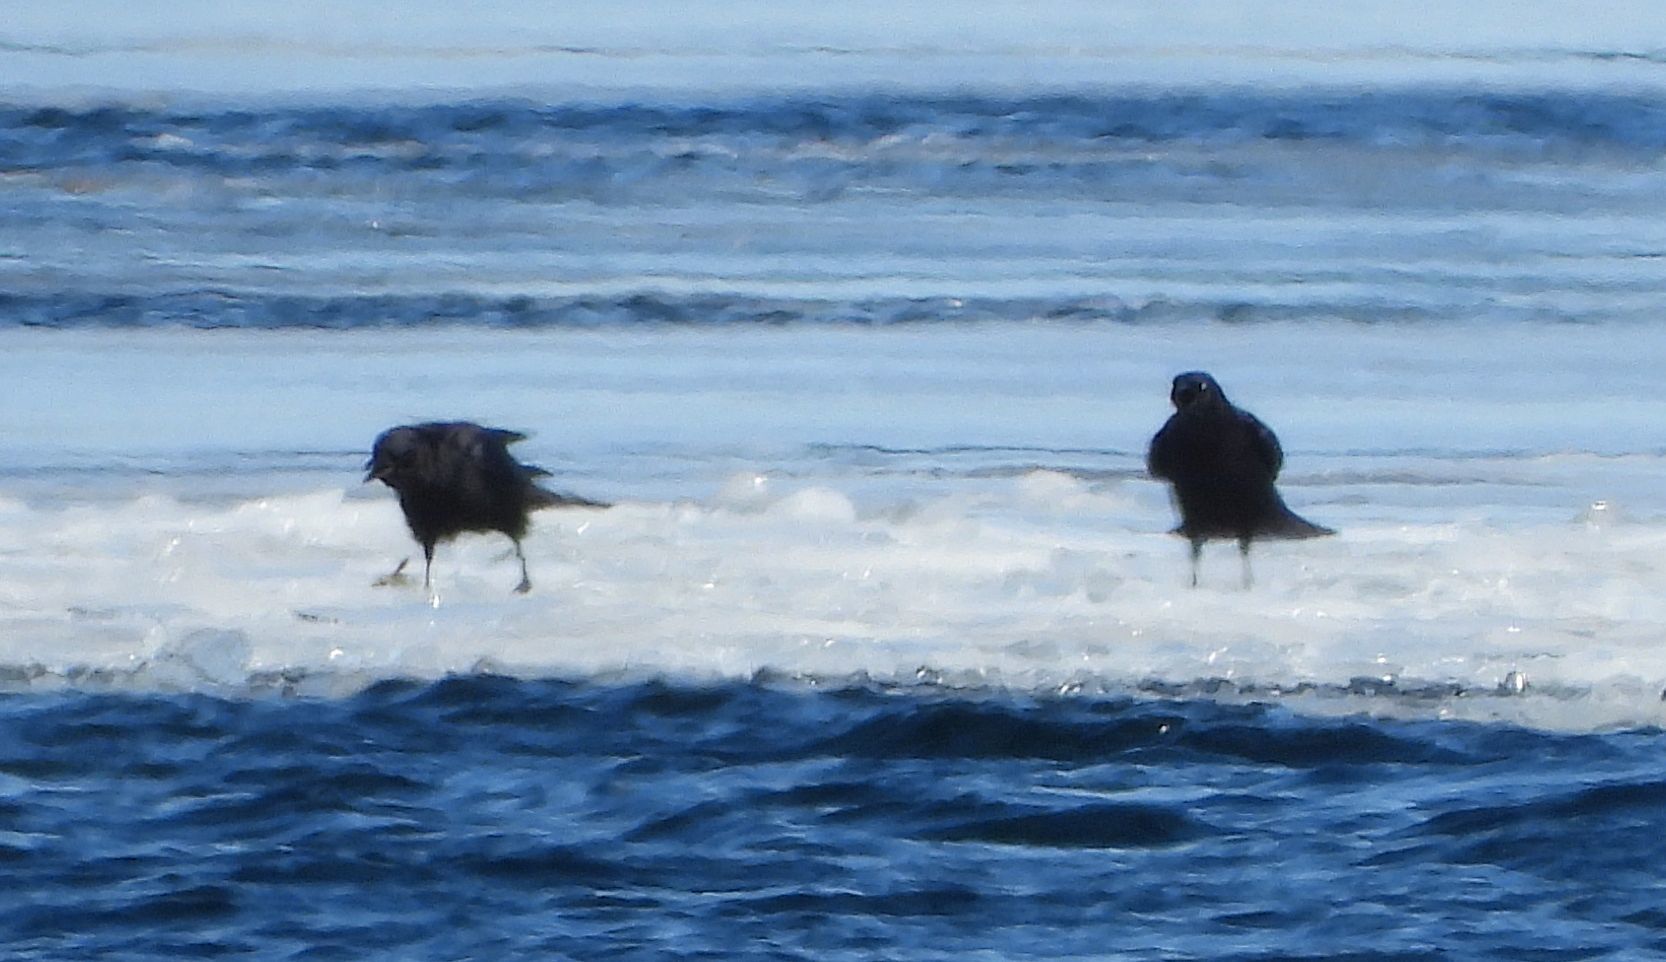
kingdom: Animalia
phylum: Chordata
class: Aves
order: Passeriformes
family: Corvidae
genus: Corvus
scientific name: Corvus brachyrhynchos
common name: American crow
